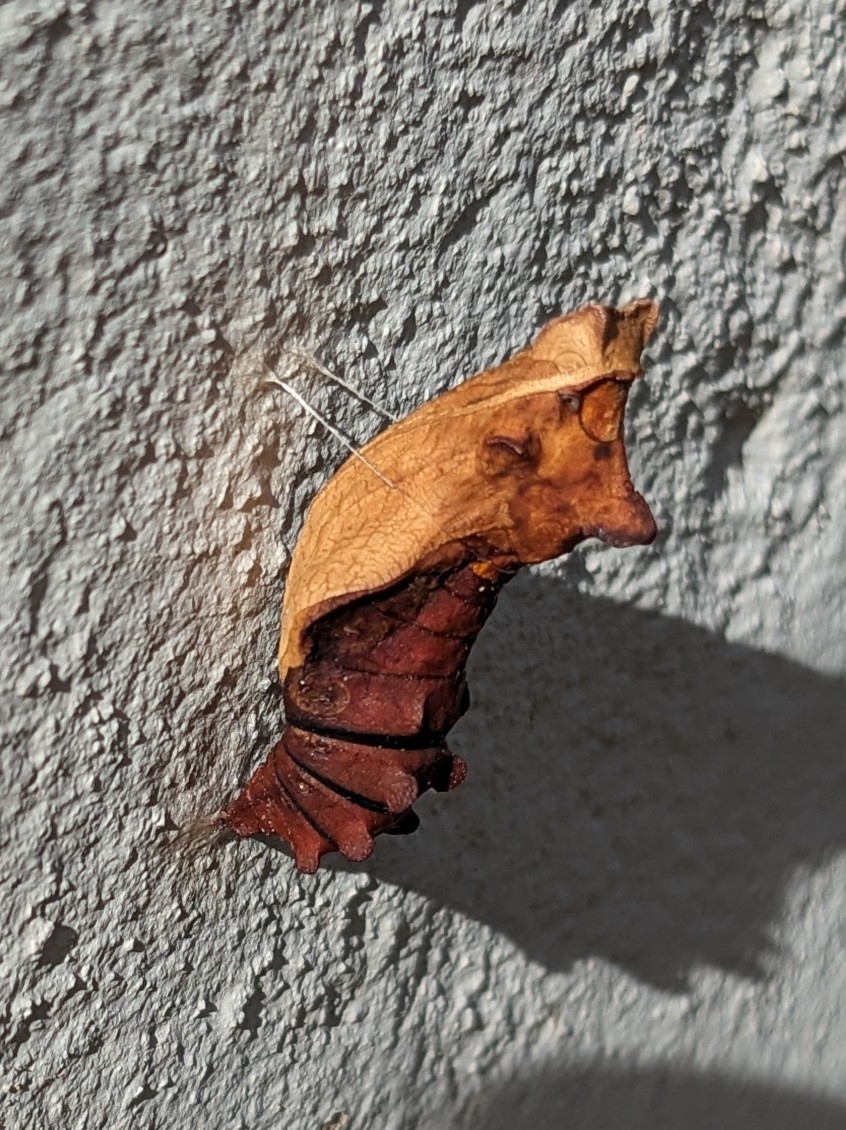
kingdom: Animalia
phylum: Arthropoda
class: Insecta
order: Lepidoptera
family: Papilionidae
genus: Battus
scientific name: Battus philenor
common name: Pipevine swallowtail
